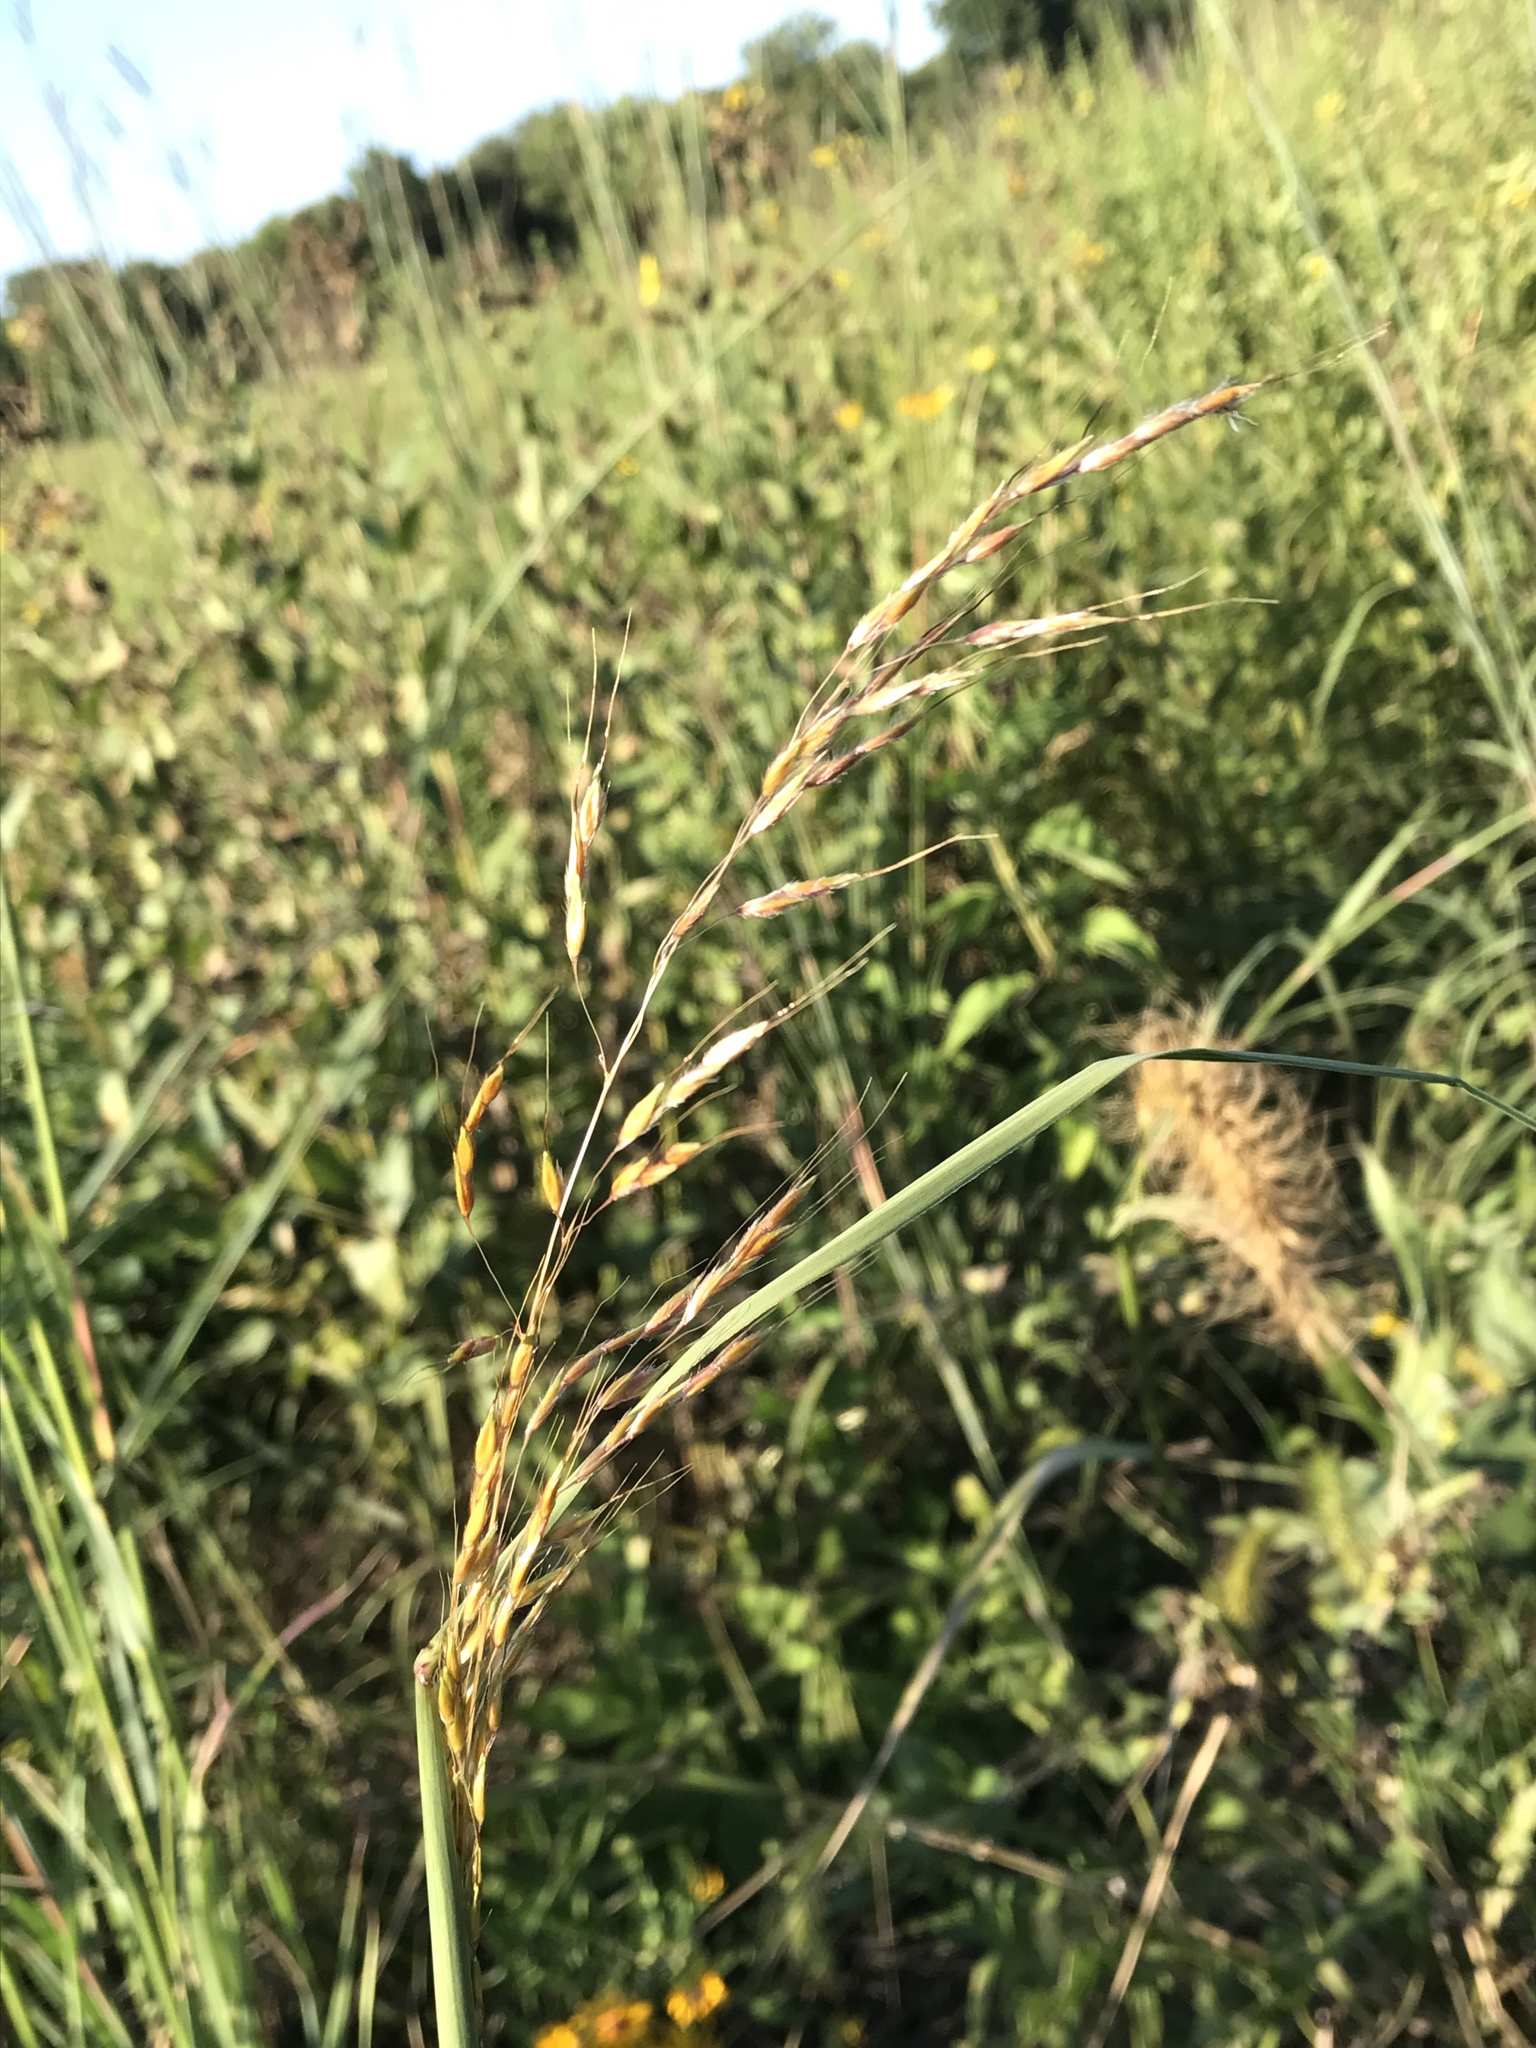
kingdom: Plantae
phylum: Tracheophyta
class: Liliopsida
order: Poales
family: Poaceae
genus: Sorghastrum
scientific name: Sorghastrum nutans
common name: Indian grass
